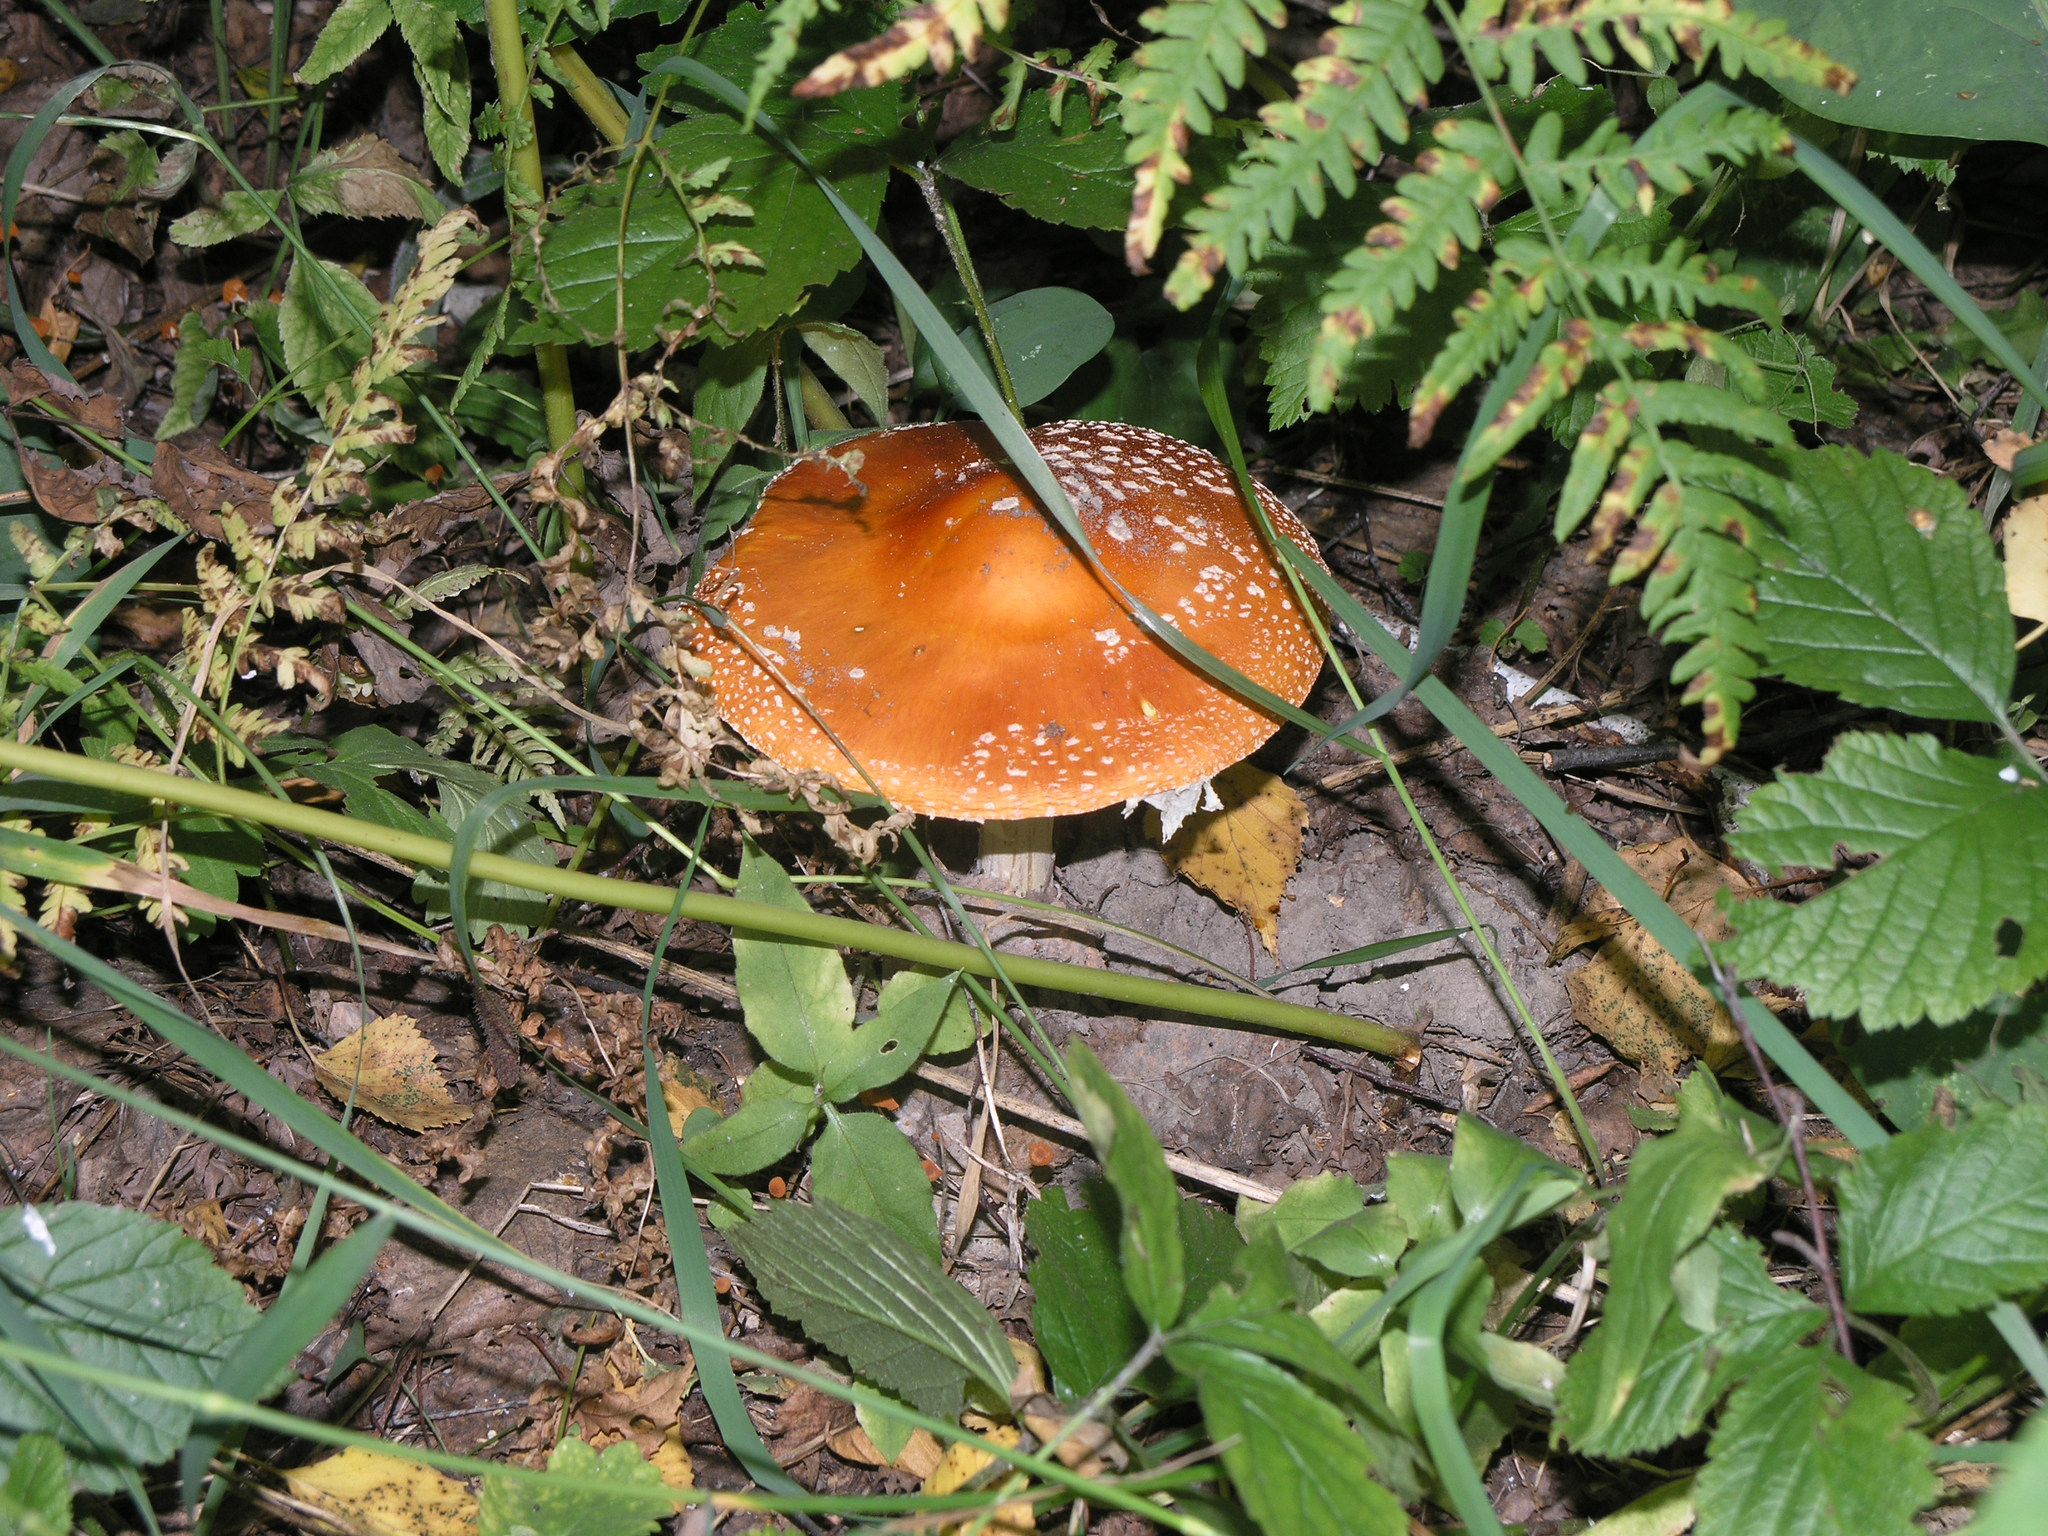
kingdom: Fungi
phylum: Basidiomycota
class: Agaricomycetes
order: Agaricales
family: Amanitaceae
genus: Amanita
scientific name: Amanita muscaria
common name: Fly agaric
